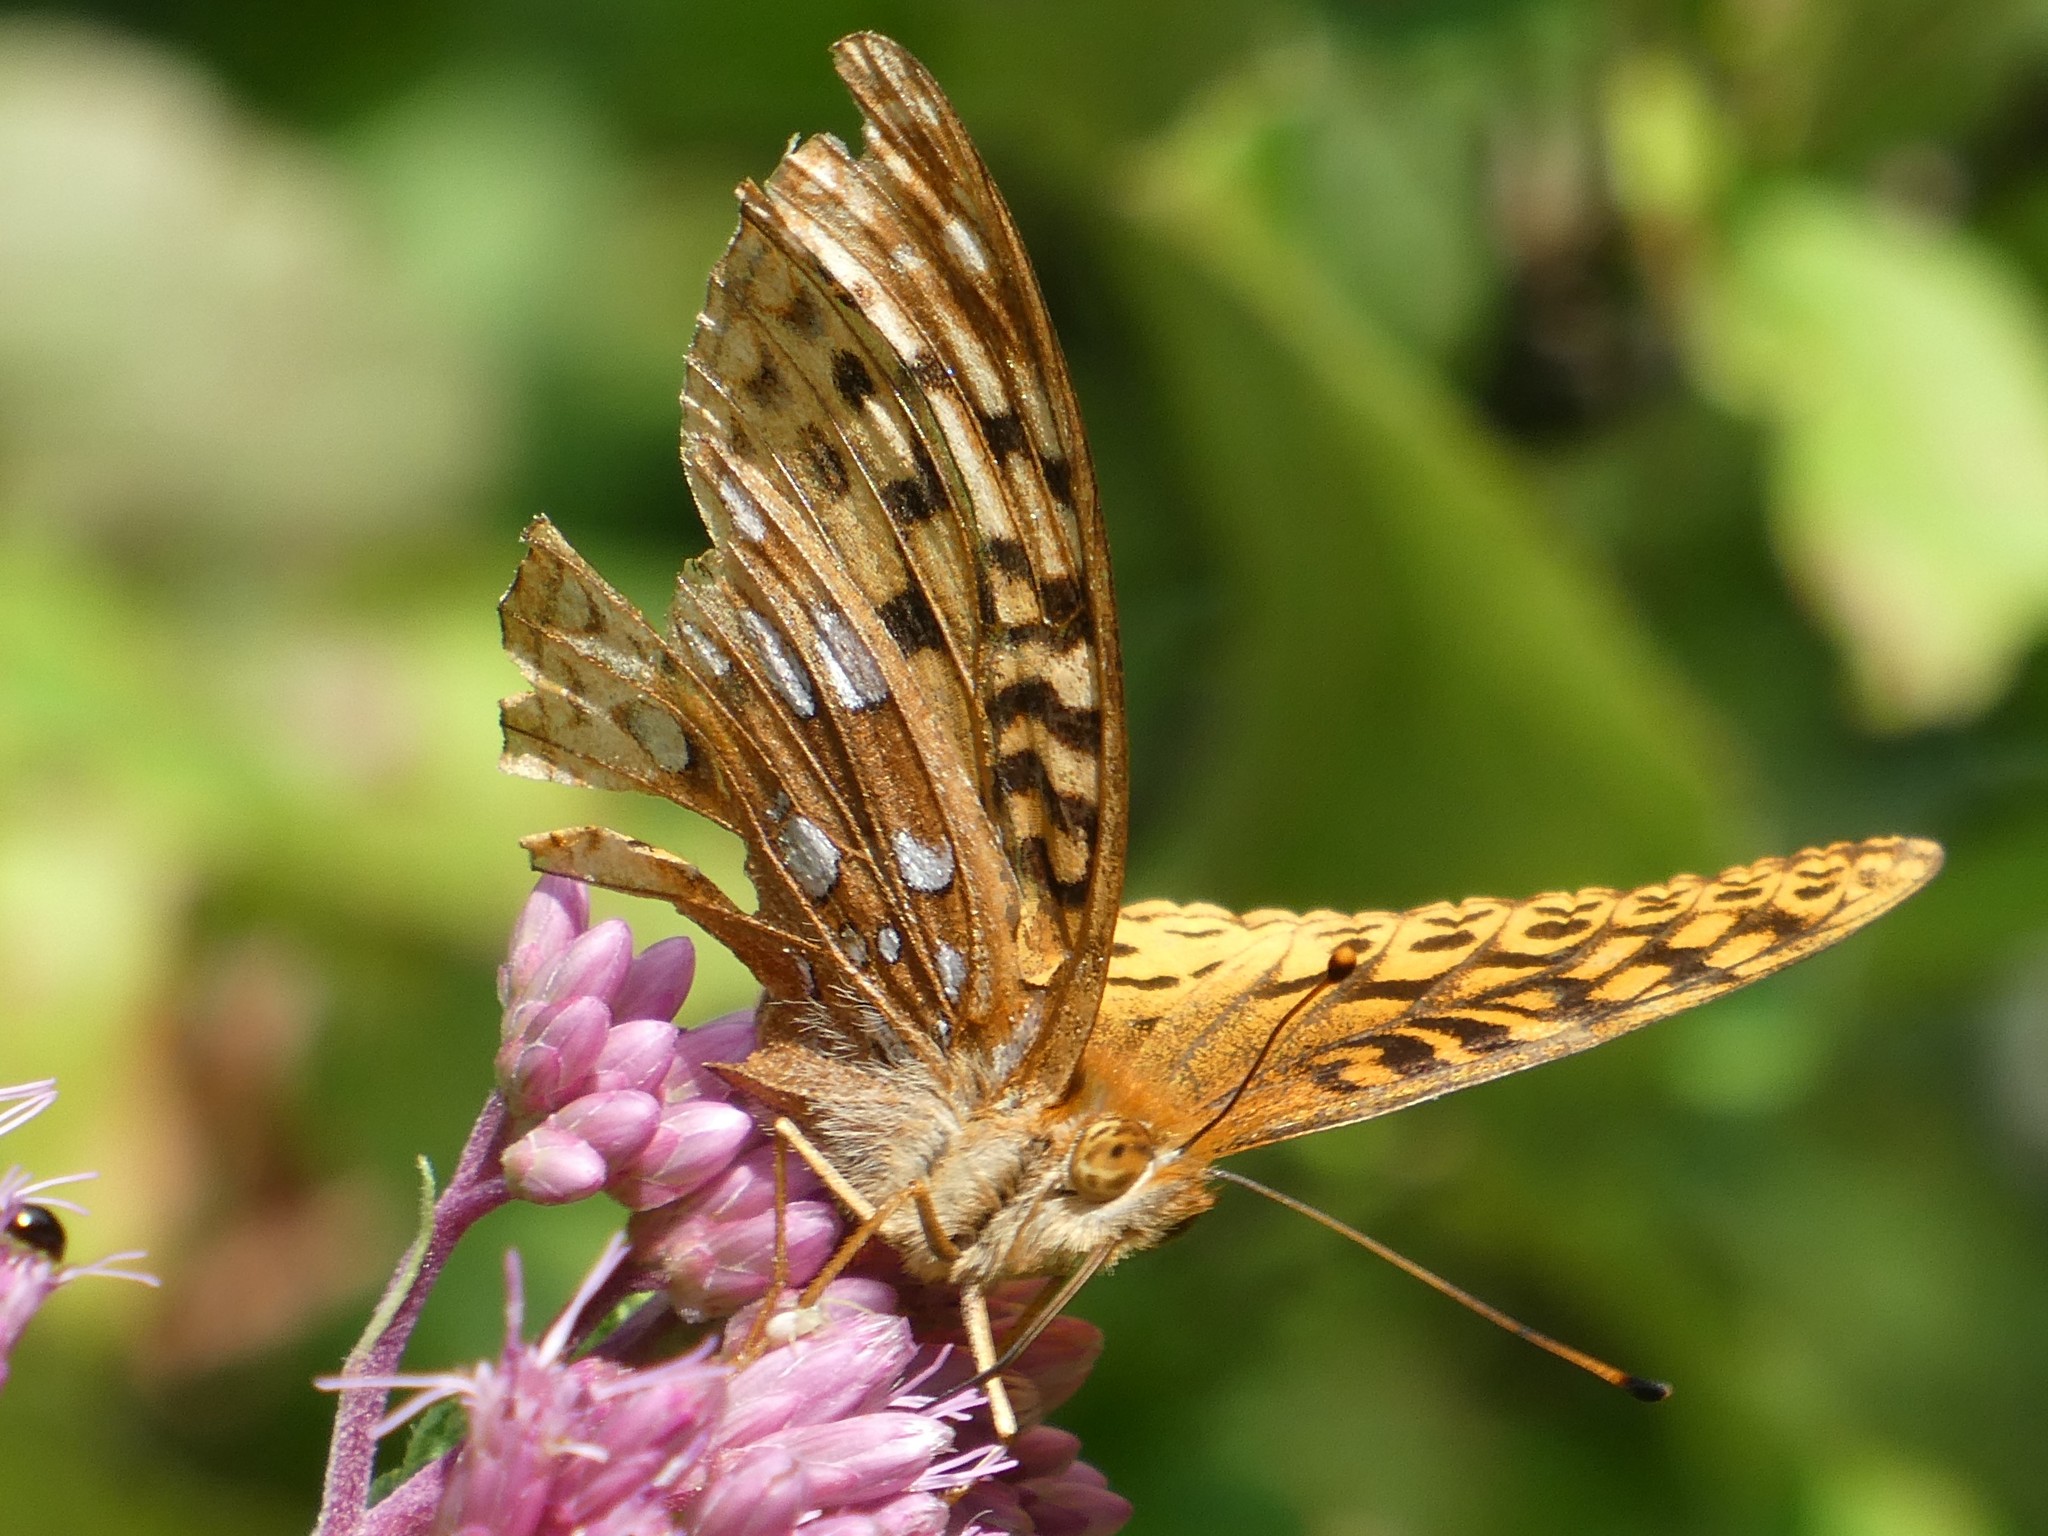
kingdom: Animalia
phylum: Arthropoda
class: Insecta
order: Lepidoptera
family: Nymphalidae
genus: Speyeria
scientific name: Speyeria cybele
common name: Great spangled fritillary
